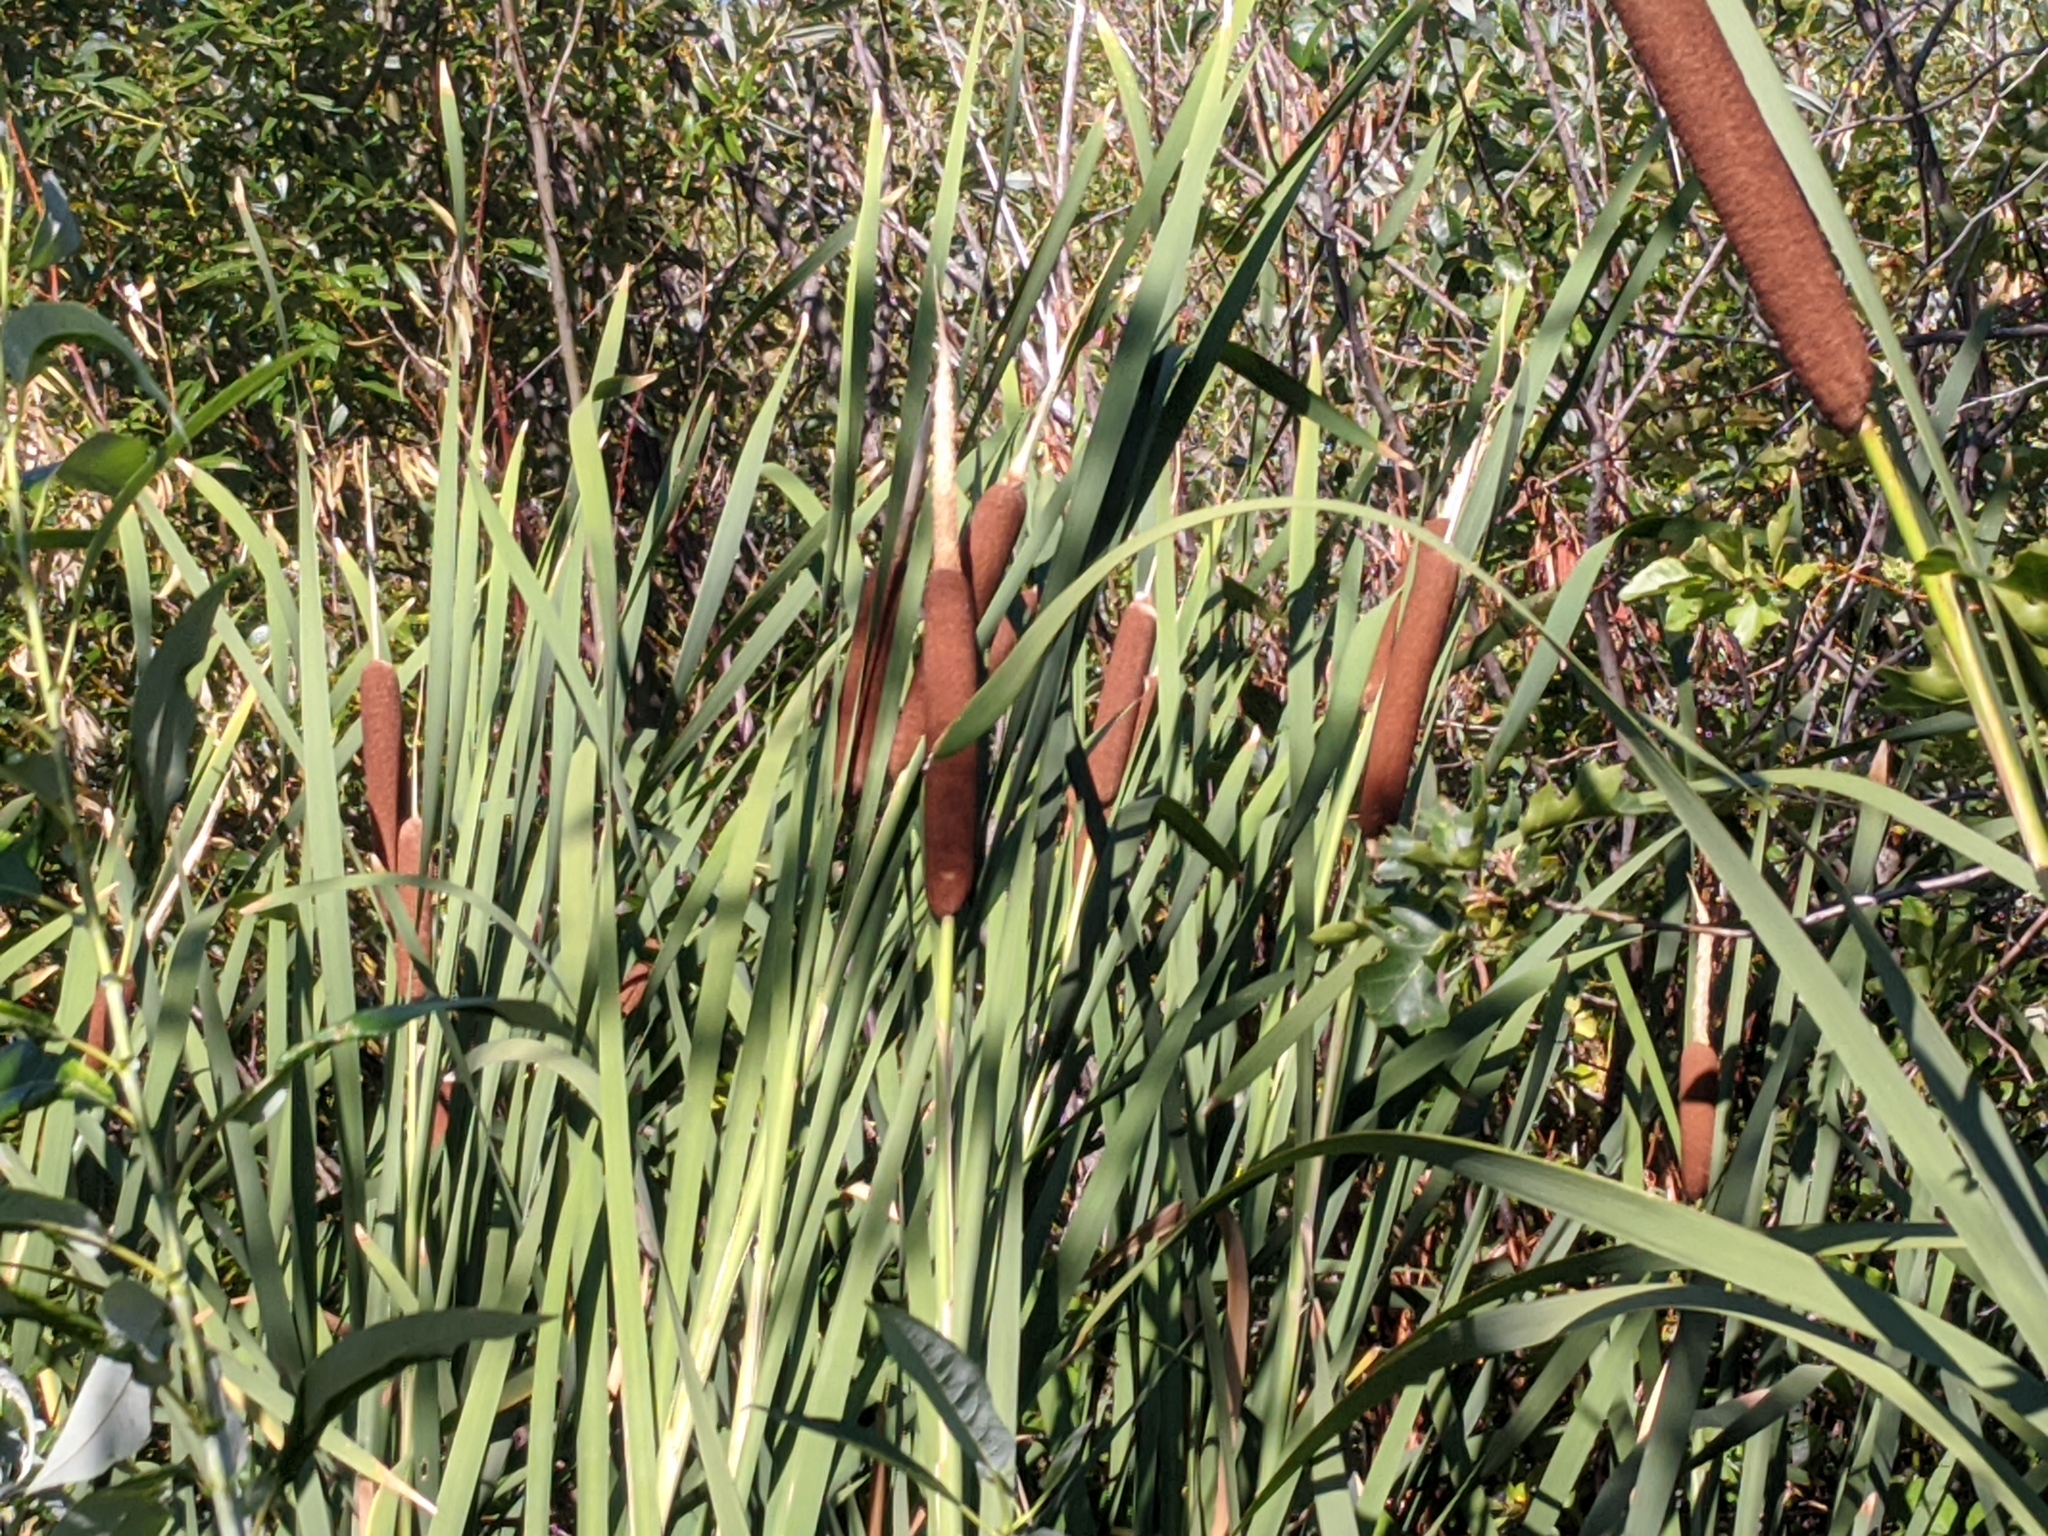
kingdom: Plantae
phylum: Tracheophyta
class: Liliopsida
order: Poales
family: Typhaceae
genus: Typha
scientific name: Typha latifolia
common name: Broadleaf cattail
